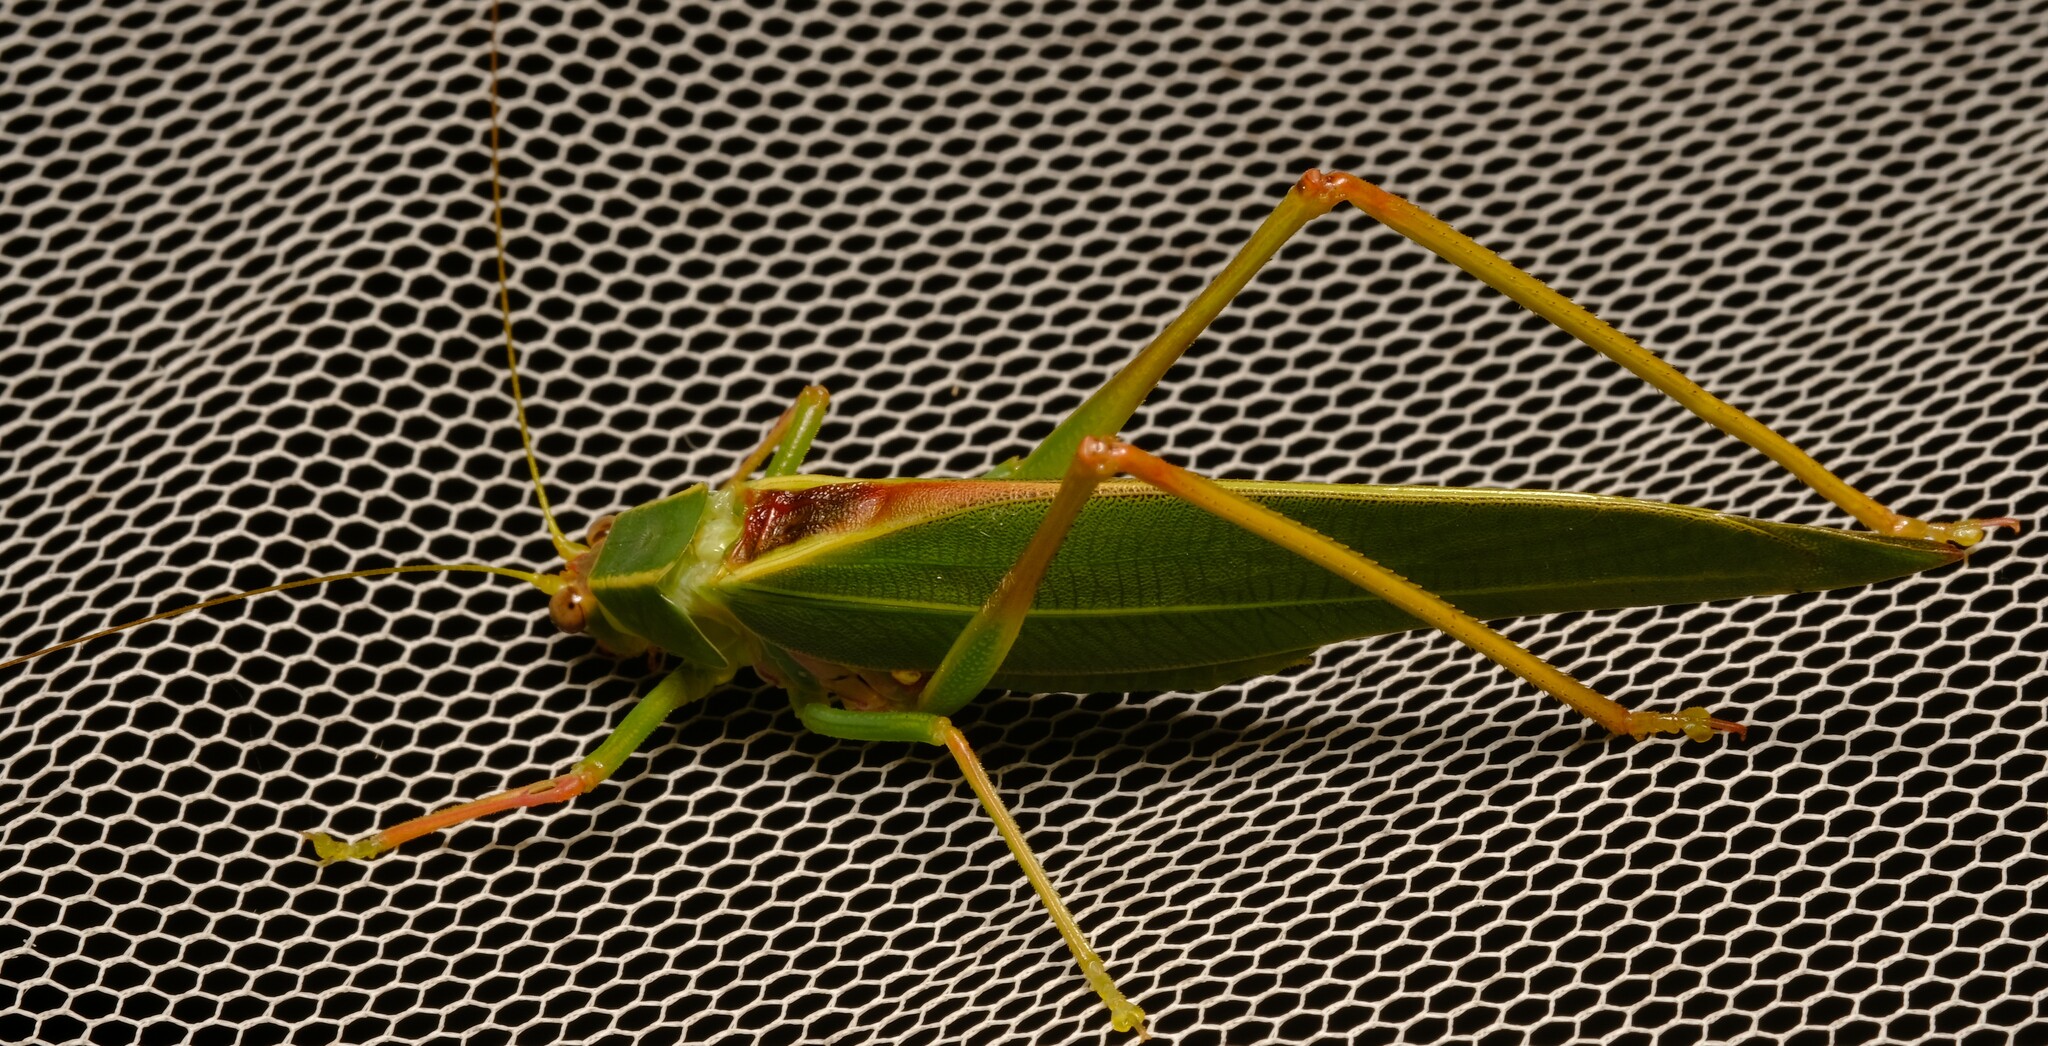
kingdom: Animalia
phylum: Arthropoda
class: Insecta
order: Orthoptera
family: Tettigoniidae
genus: Torbia
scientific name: Torbia viridissima
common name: Non-predaceous gum leaf katydid
